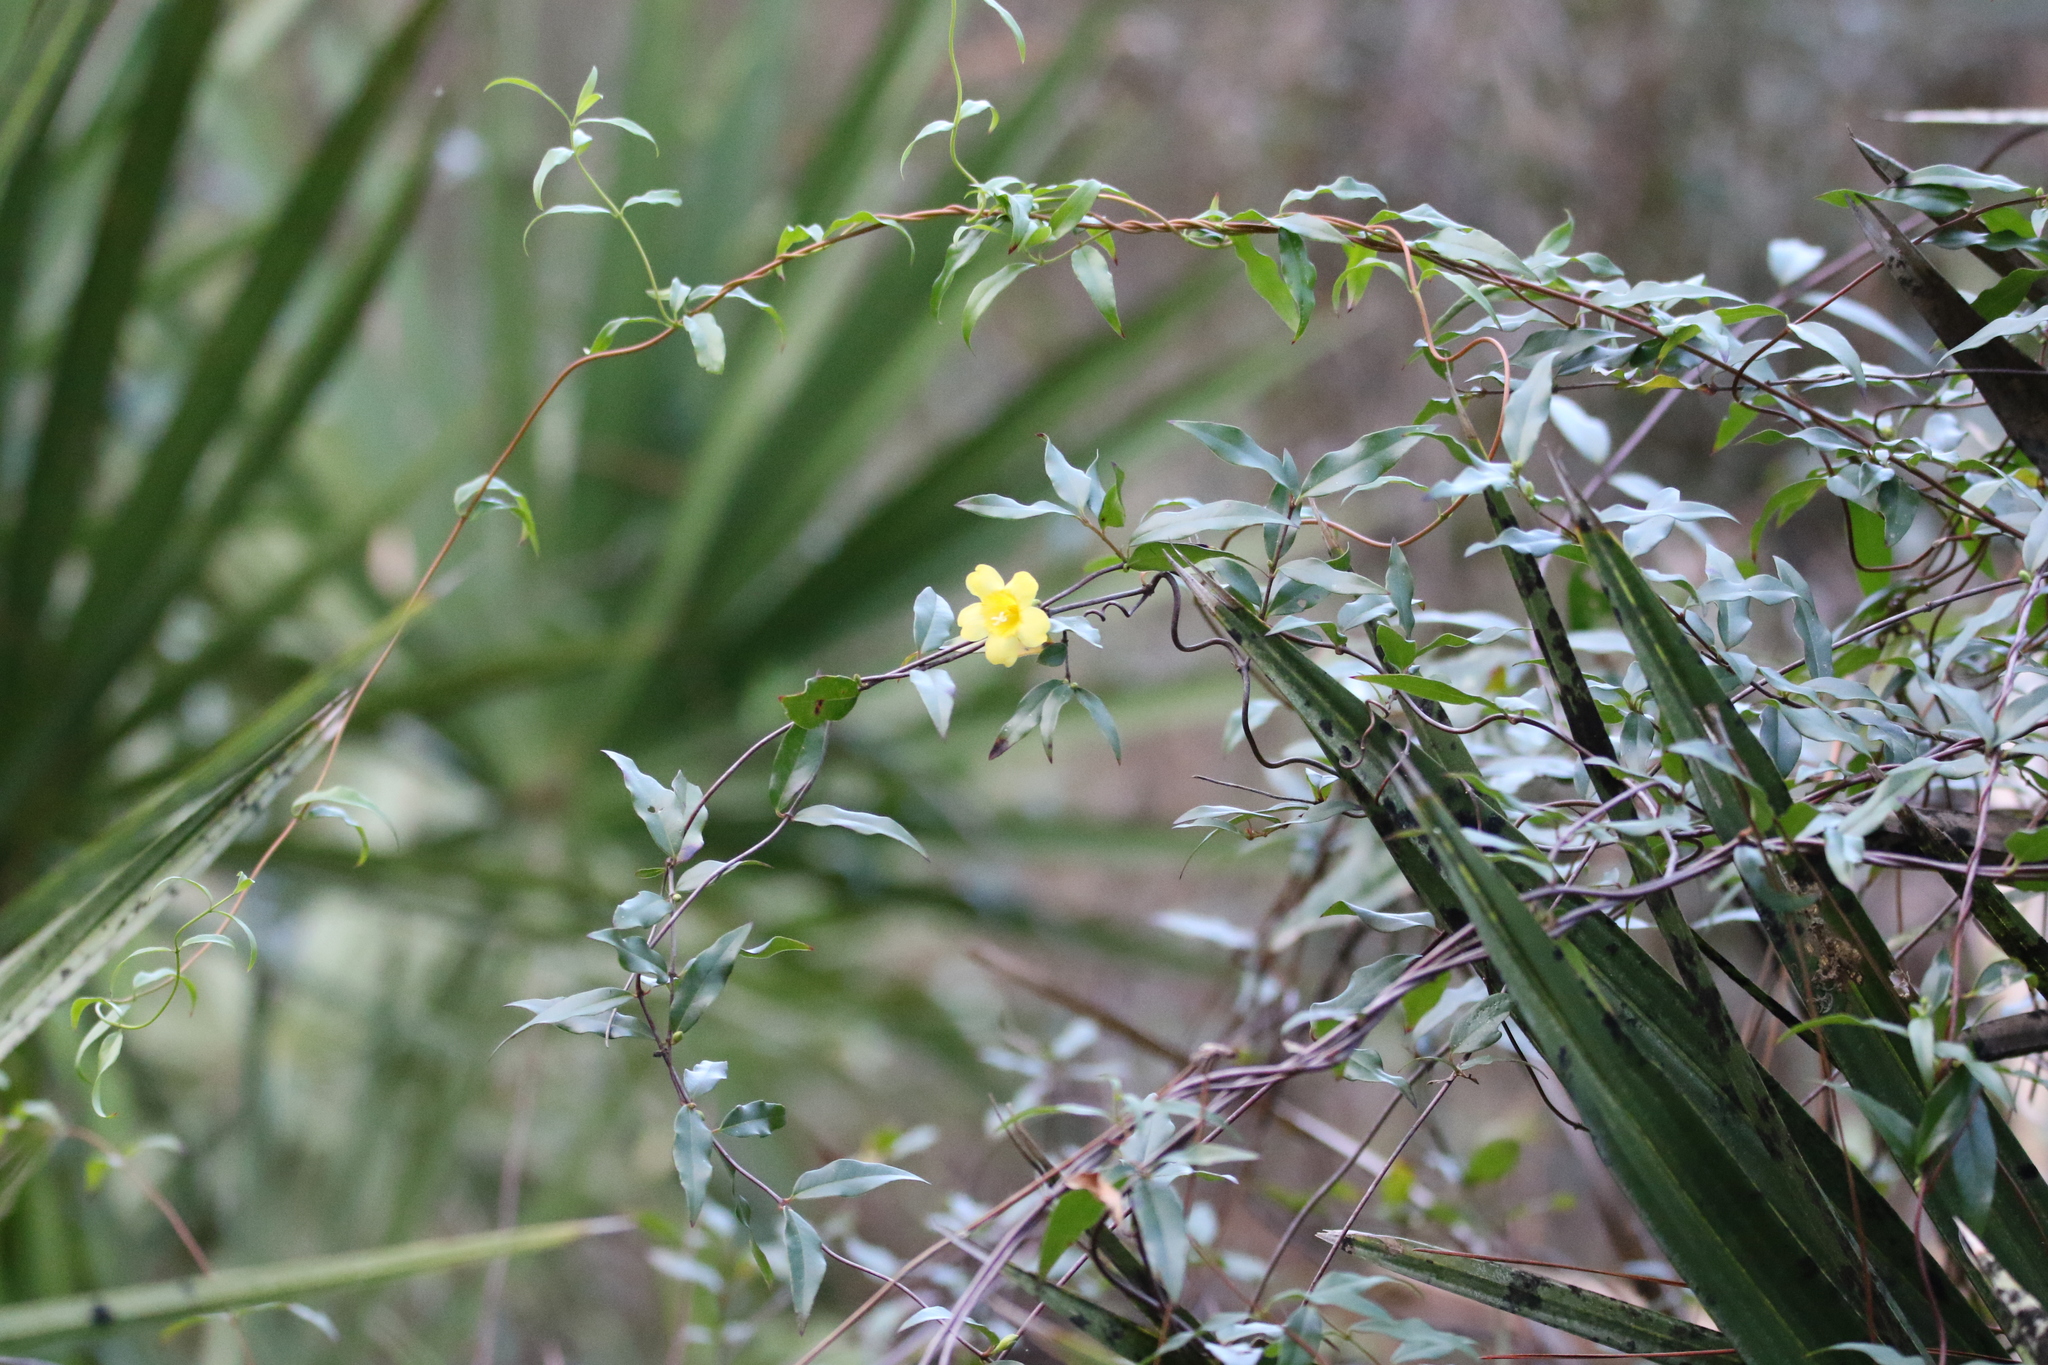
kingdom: Plantae
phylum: Tracheophyta
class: Magnoliopsida
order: Gentianales
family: Gelsemiaceae
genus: Gelsemium
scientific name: Gelsemium sempervirens
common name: Carolina-jasmine
